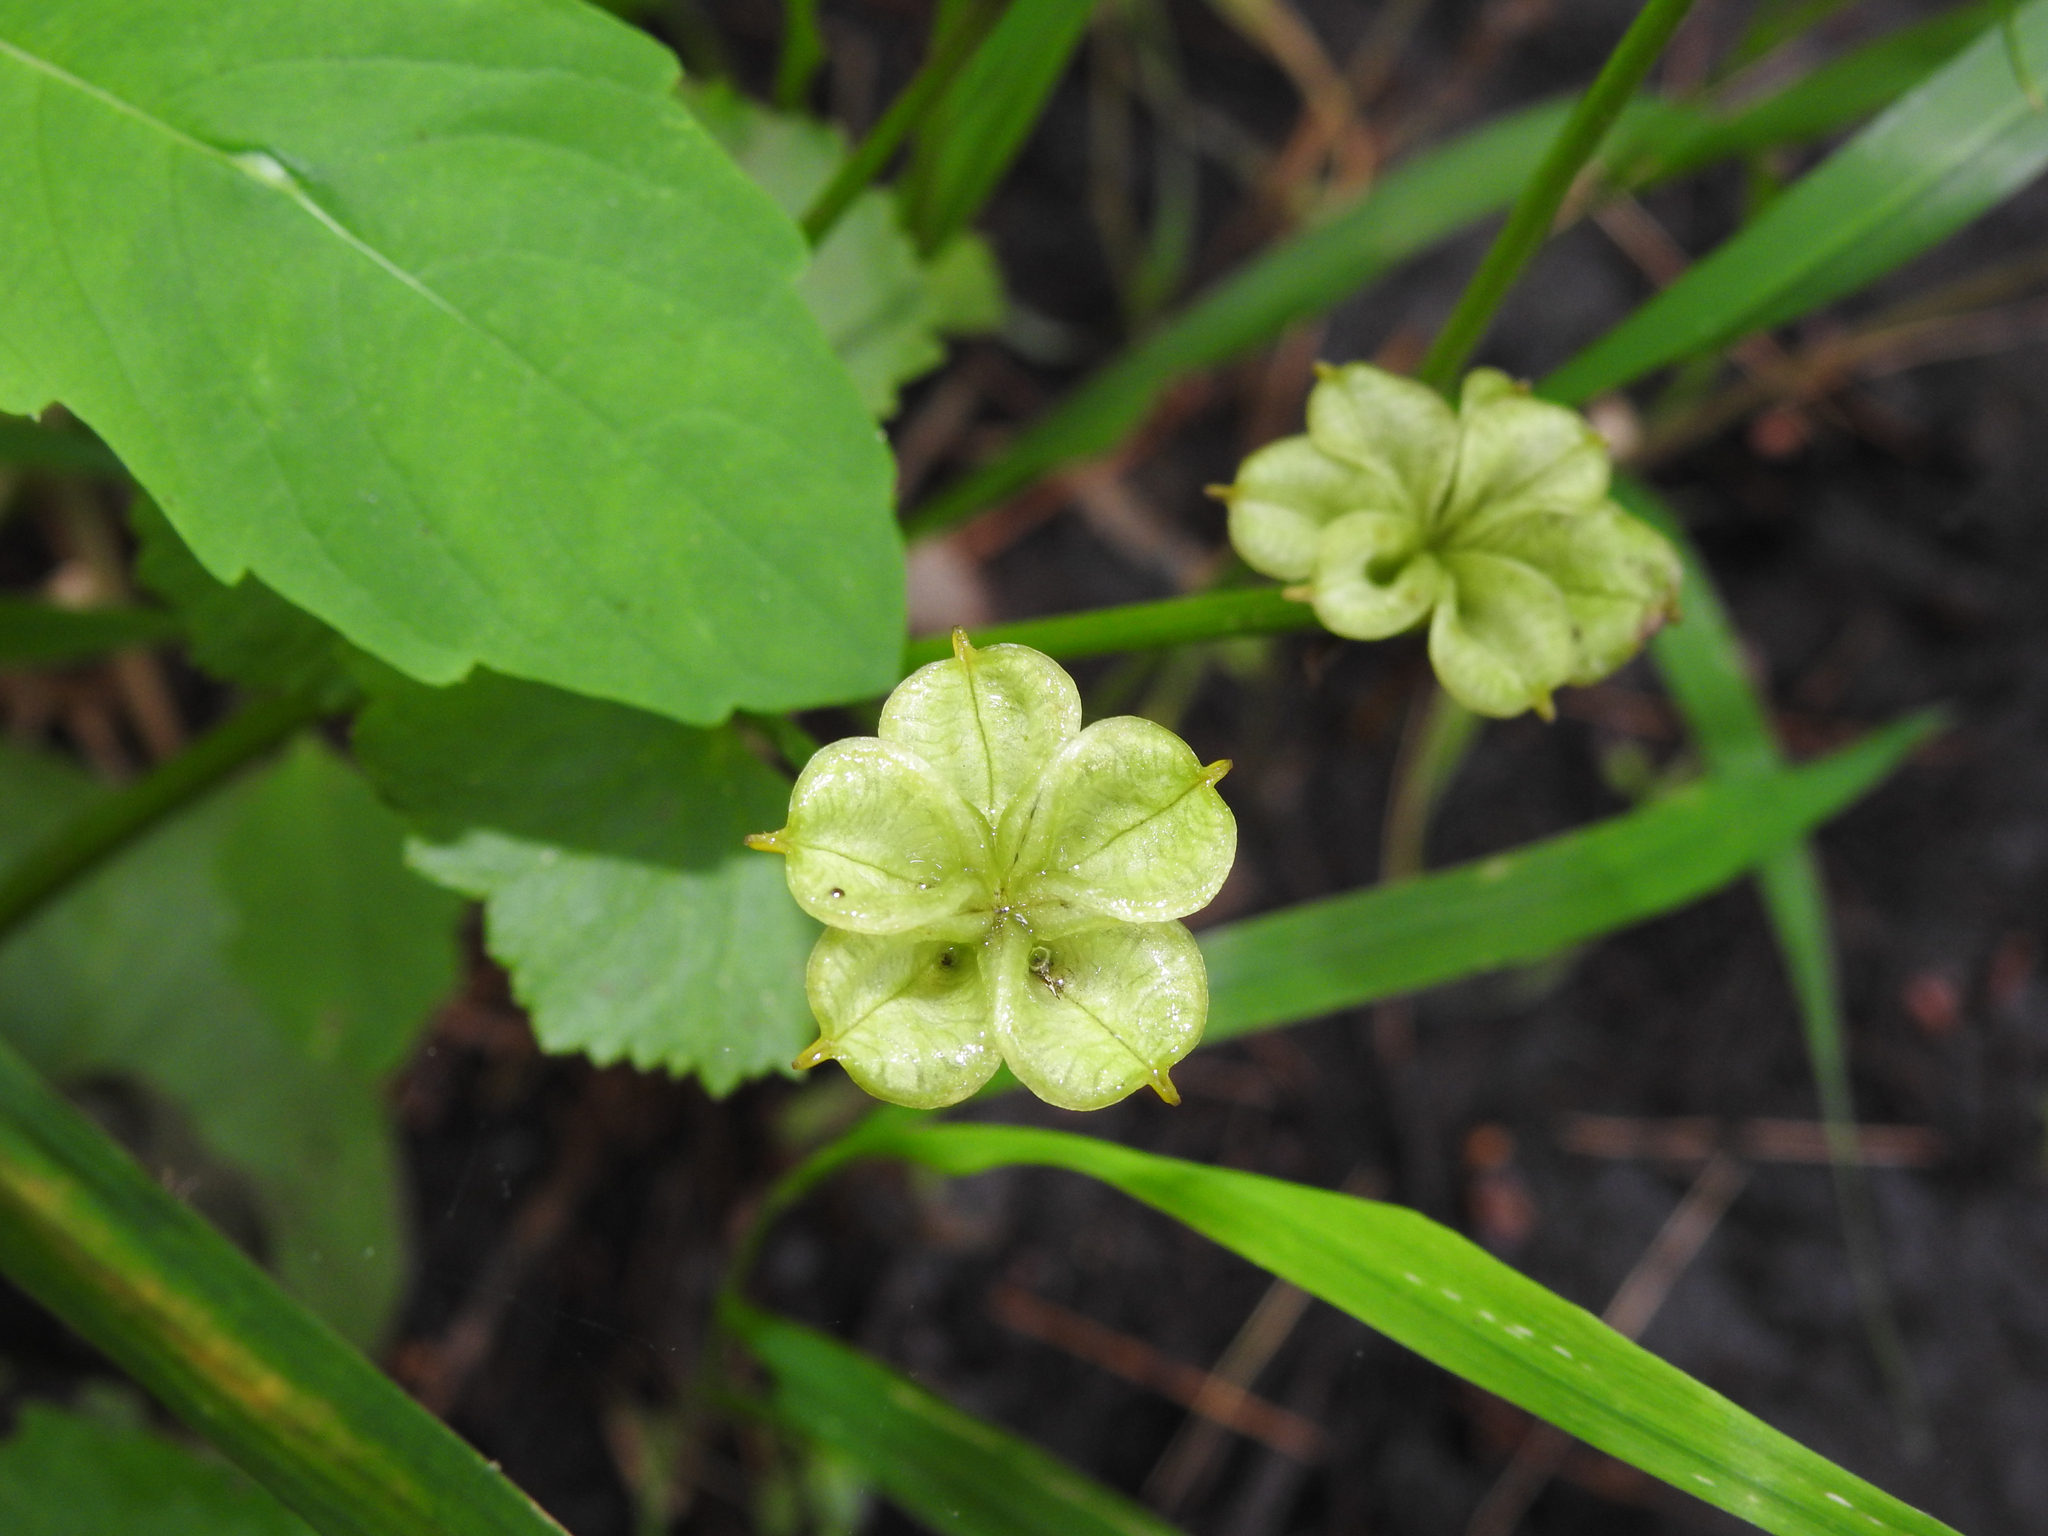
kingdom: Plantae
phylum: Tracheophyta
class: Magnoliopsida
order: Ranunculales
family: Ranunculaceae
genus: Caltha
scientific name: Caltha palustris
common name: Marsh marigold
